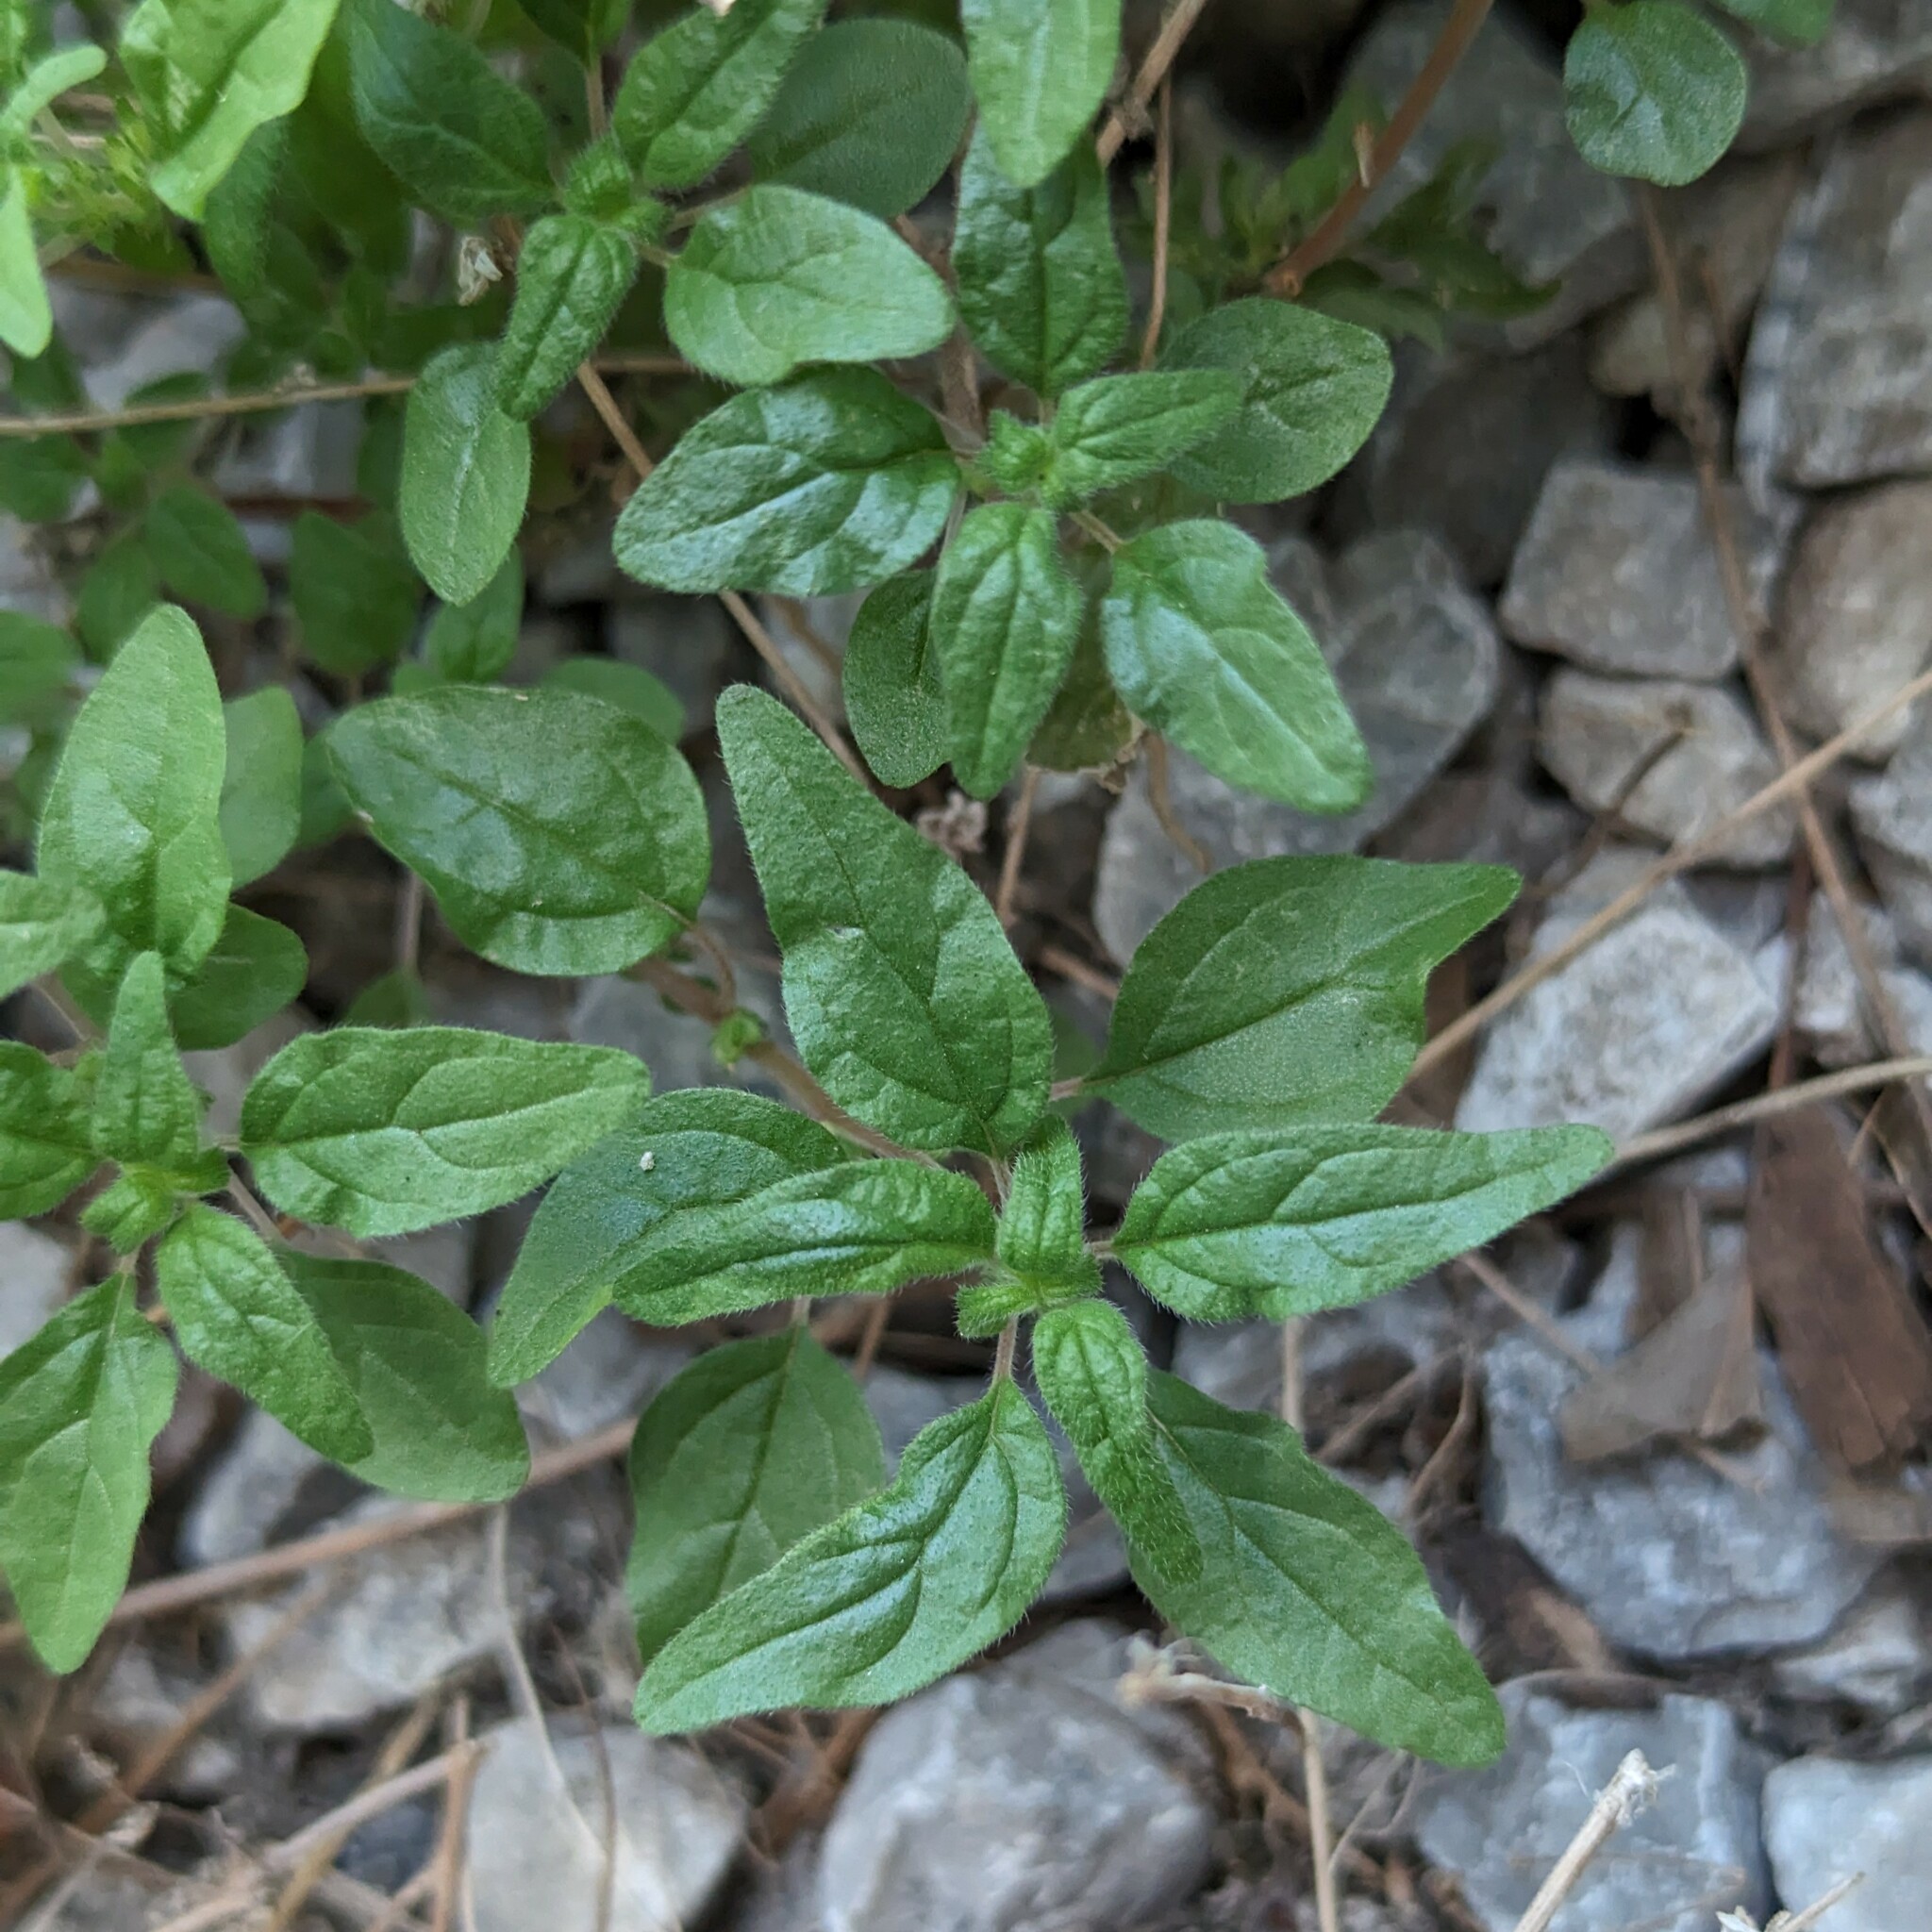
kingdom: Plantae
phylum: Tracheophyta
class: Magnoliopsida
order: Rosales
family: Urticaceae
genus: Parietaria
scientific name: Parietaria pensylvanica
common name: Pennsylvania pellitory
